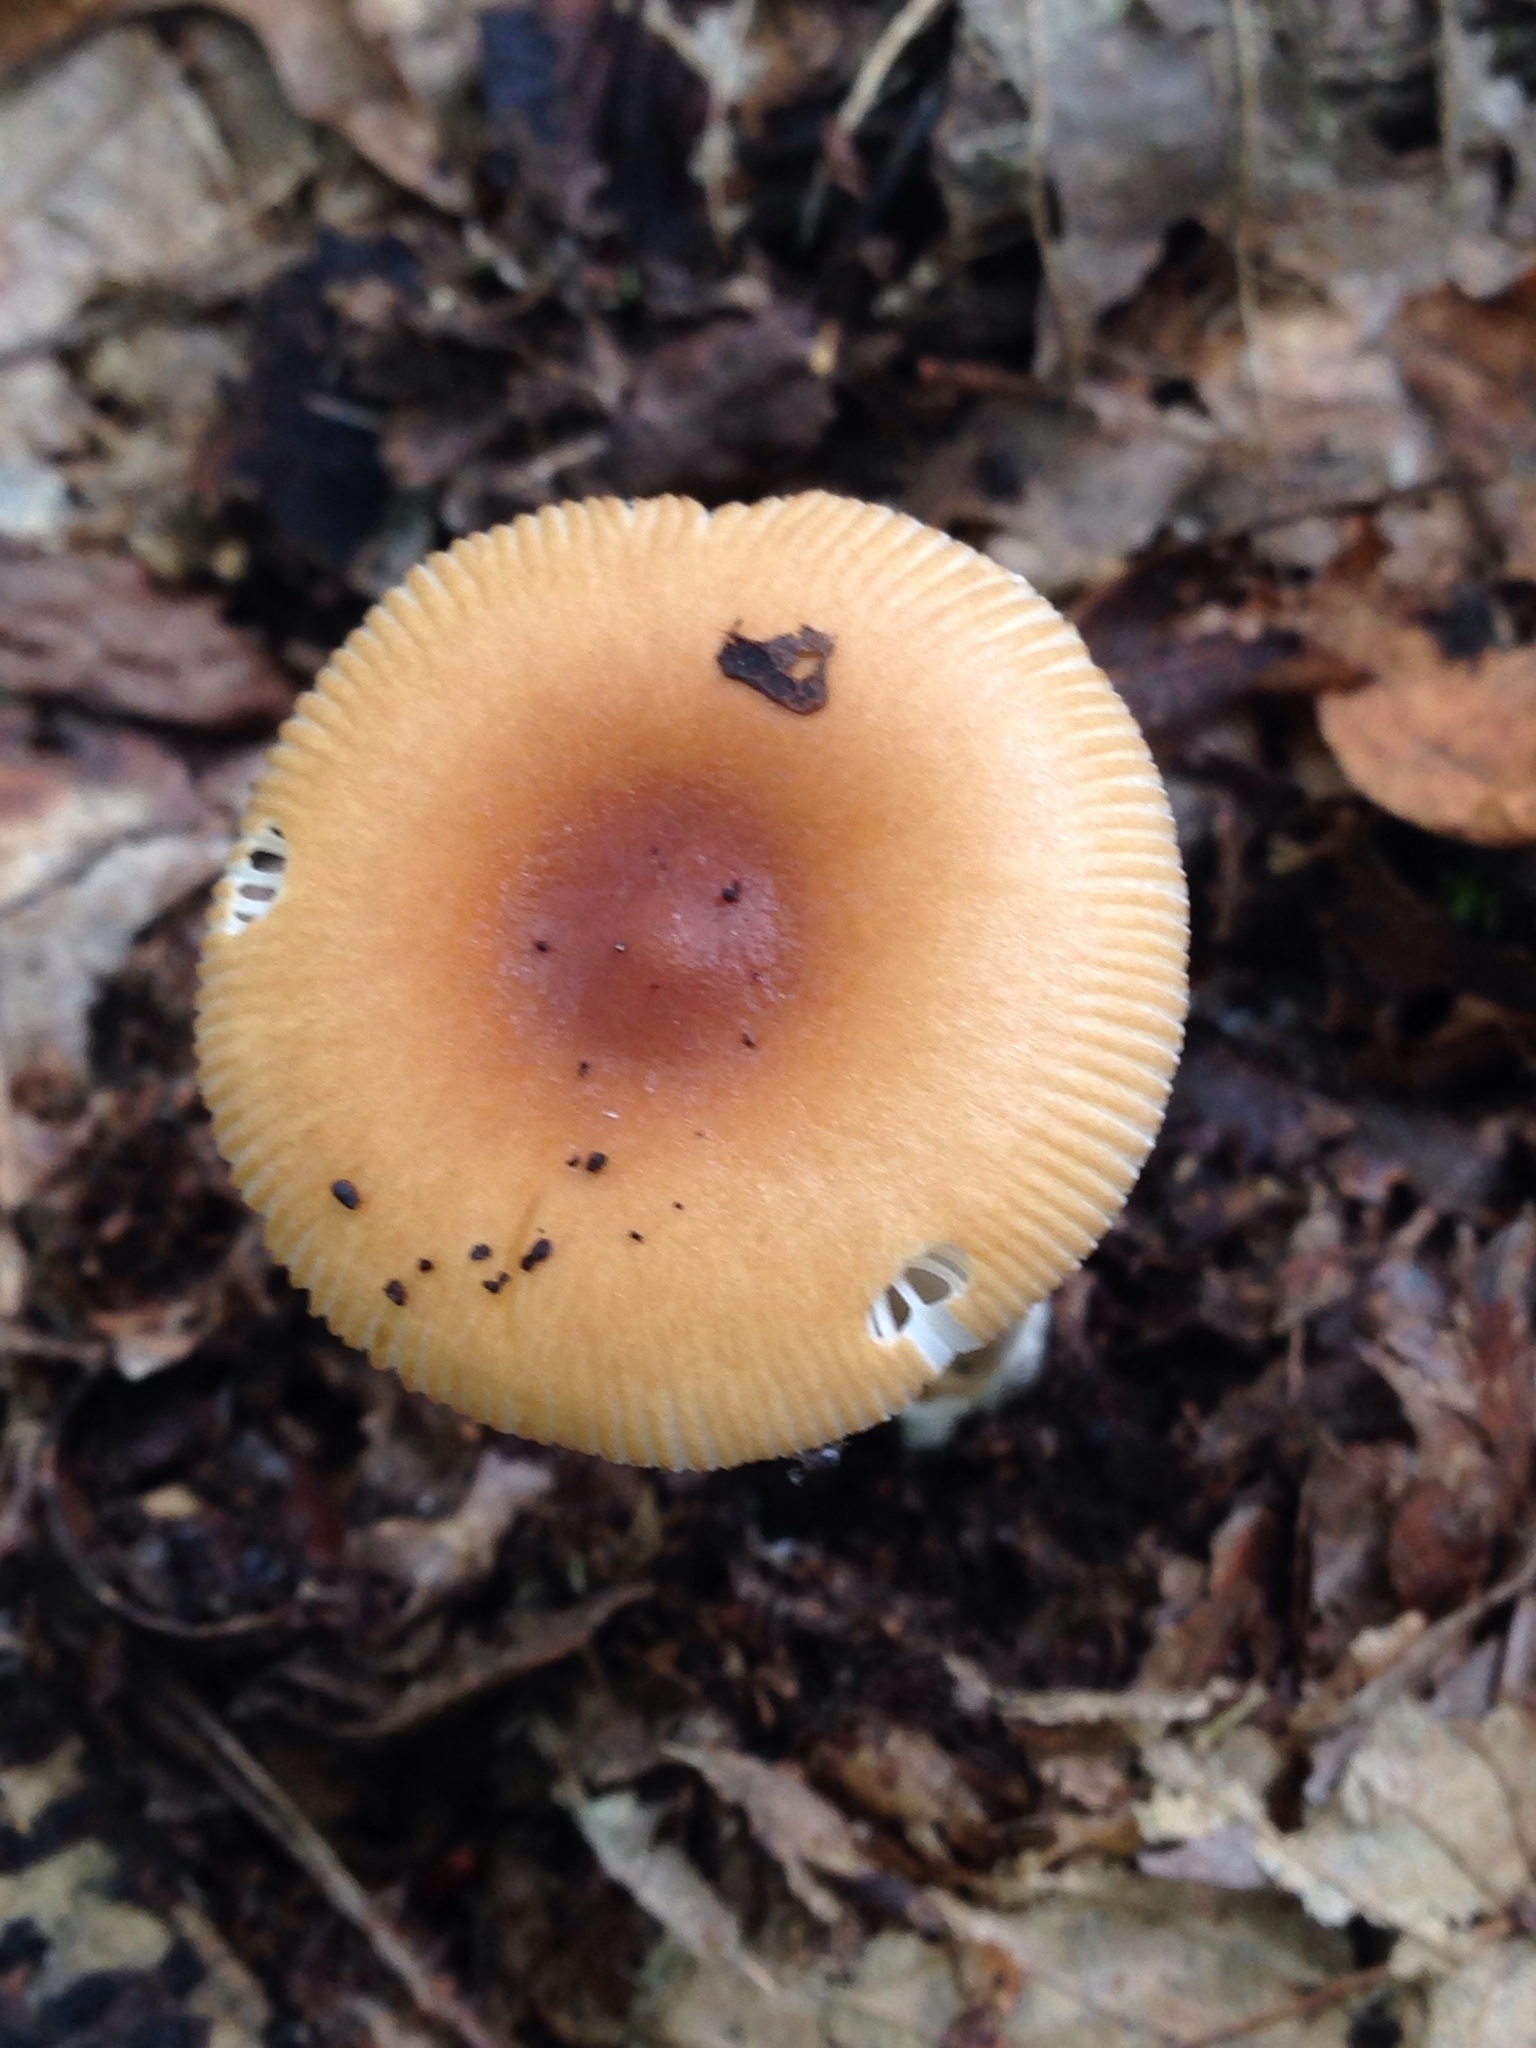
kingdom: Fungi
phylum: Basidiomycota
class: Agaricomycetes
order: Agaricales
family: Amanitaceae
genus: Amanita
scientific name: Amanita fulva
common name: Tawny grisette
